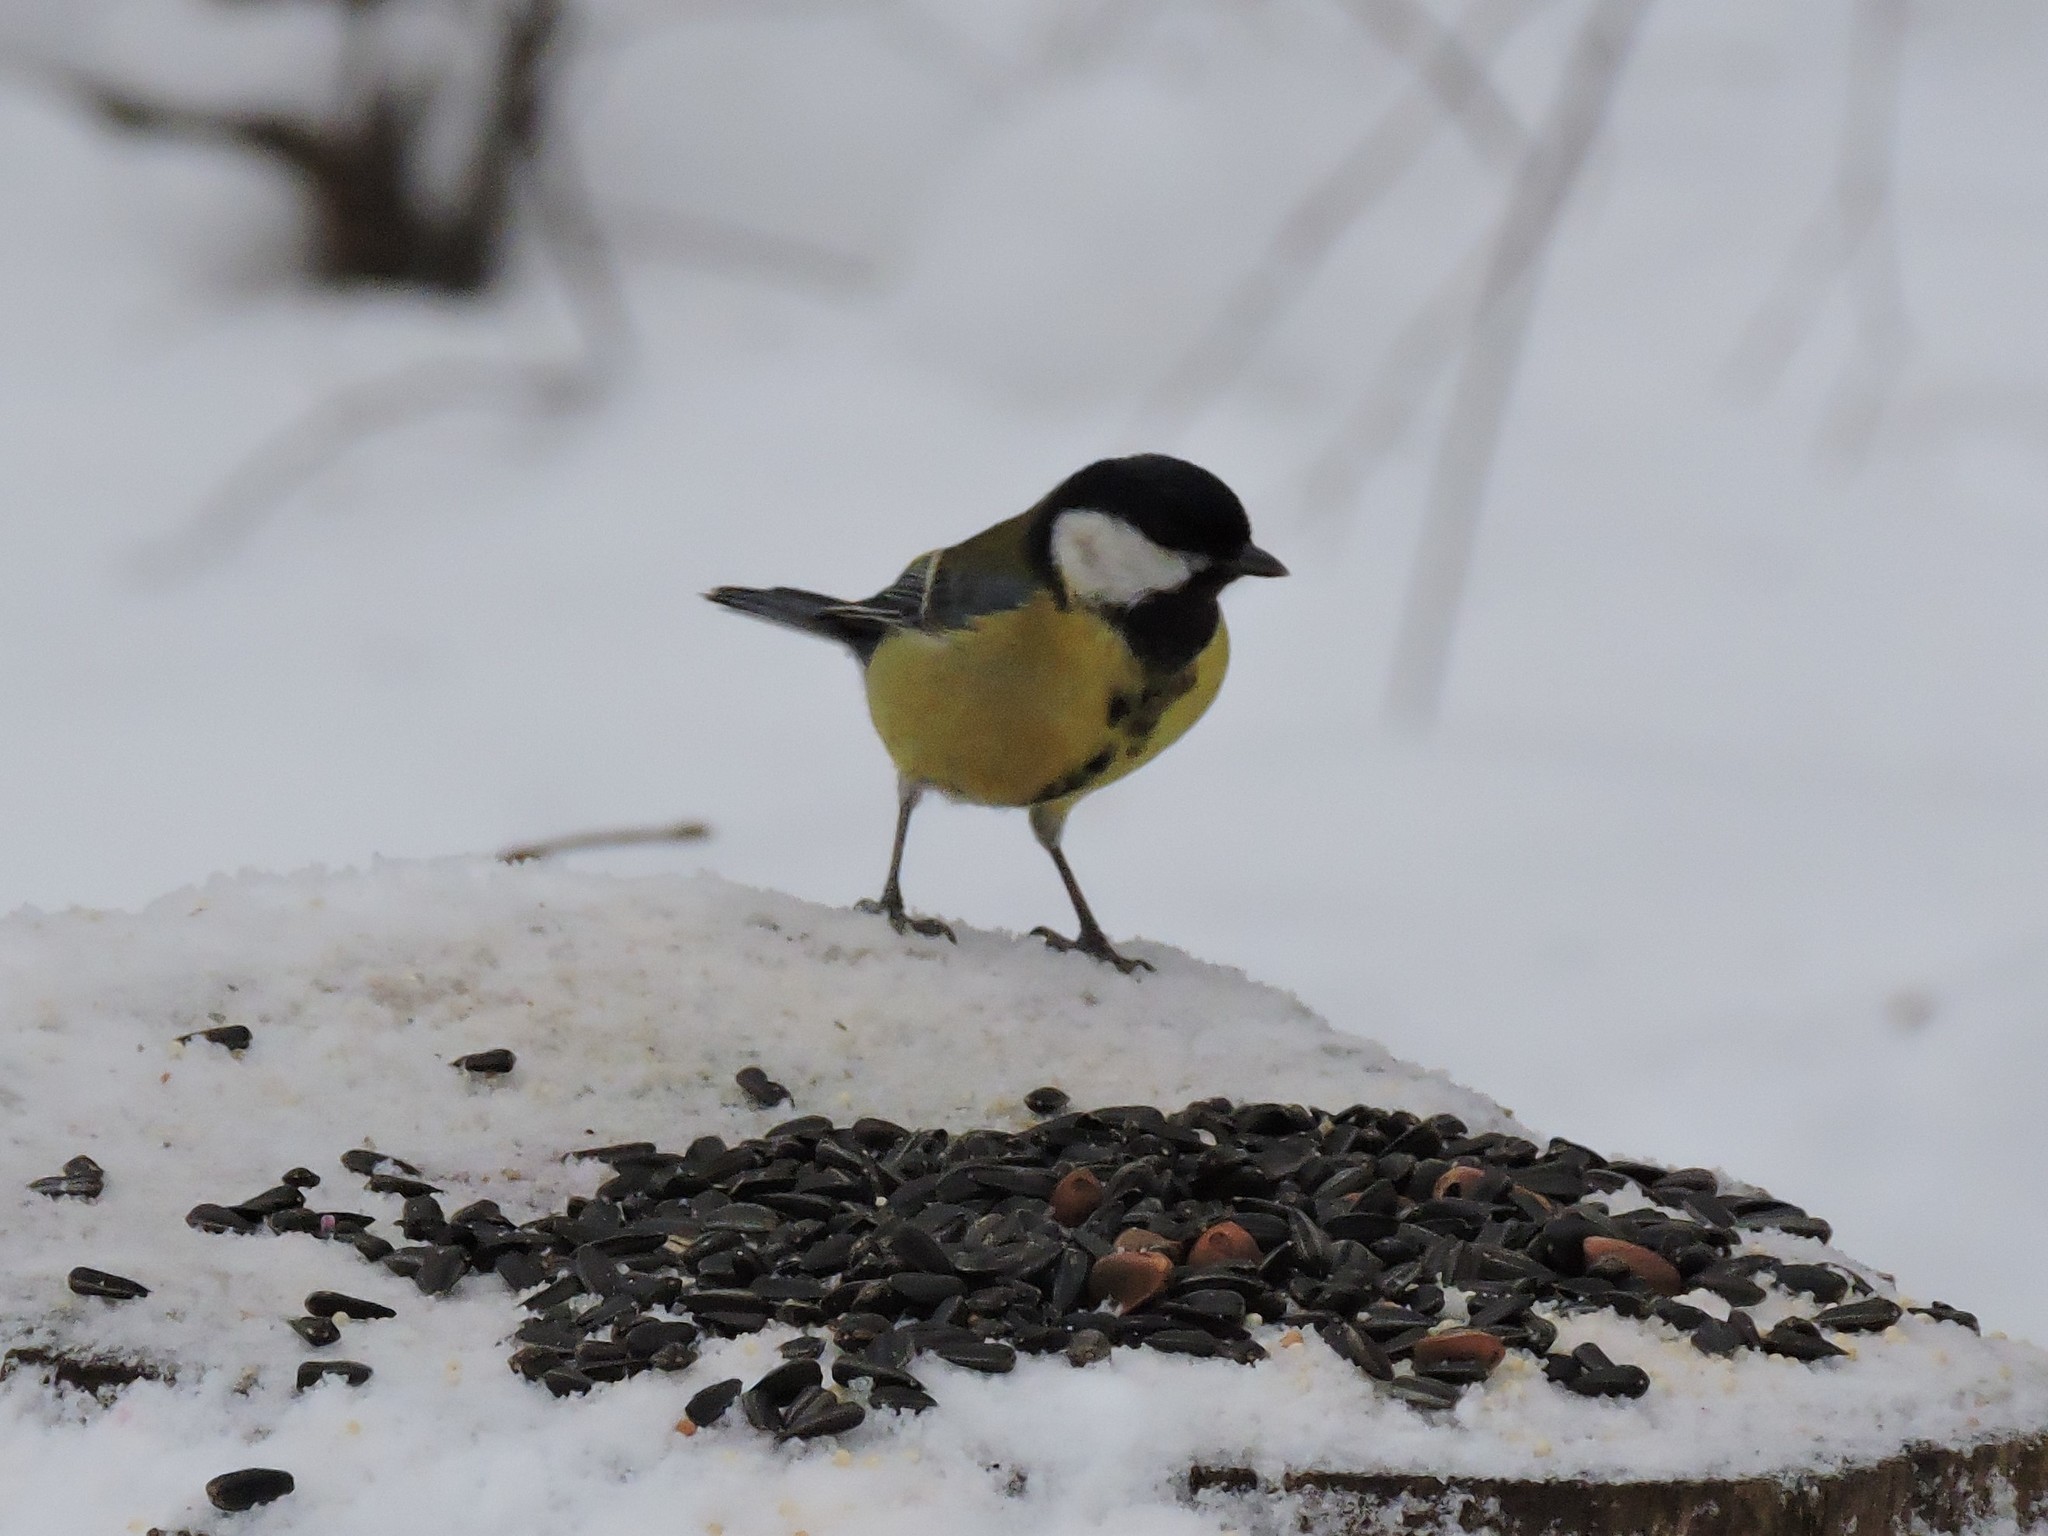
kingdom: Animalia
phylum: Chordata
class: Aves
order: Passeriformes
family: Paridae
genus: Parus
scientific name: Parus major
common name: Great tit
